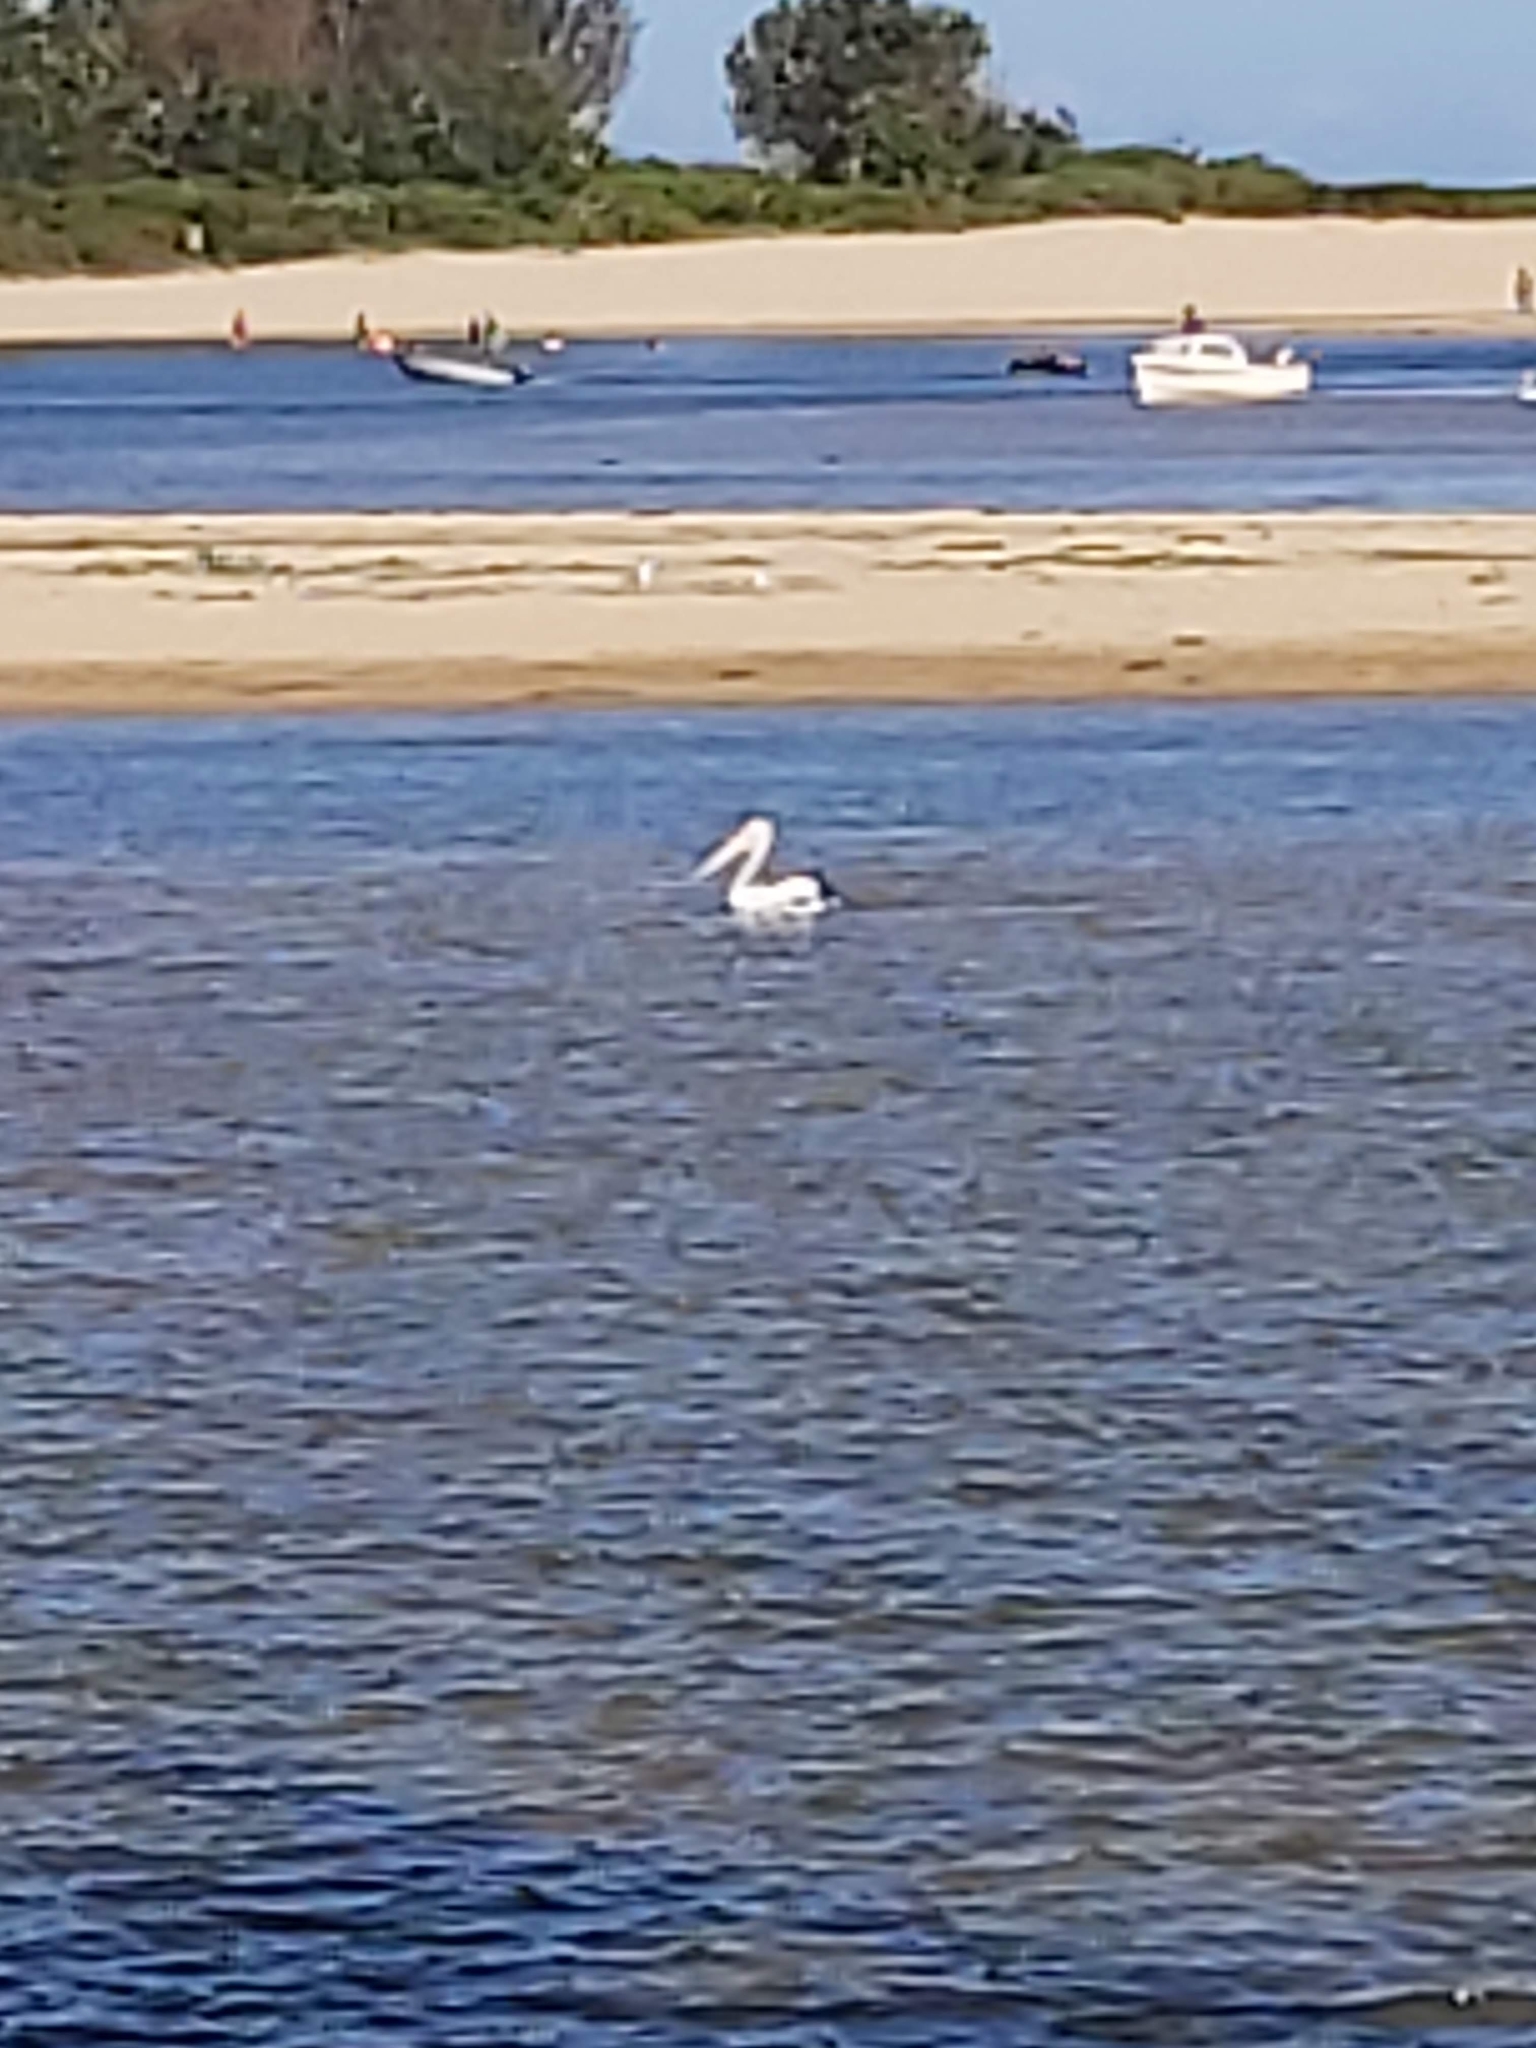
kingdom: Animalia
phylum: Chordata
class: Aves
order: Pelecaniformes
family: Pelecanidae
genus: Pelecanus
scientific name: Pelecanus conspicillatus
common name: Australian pelican
